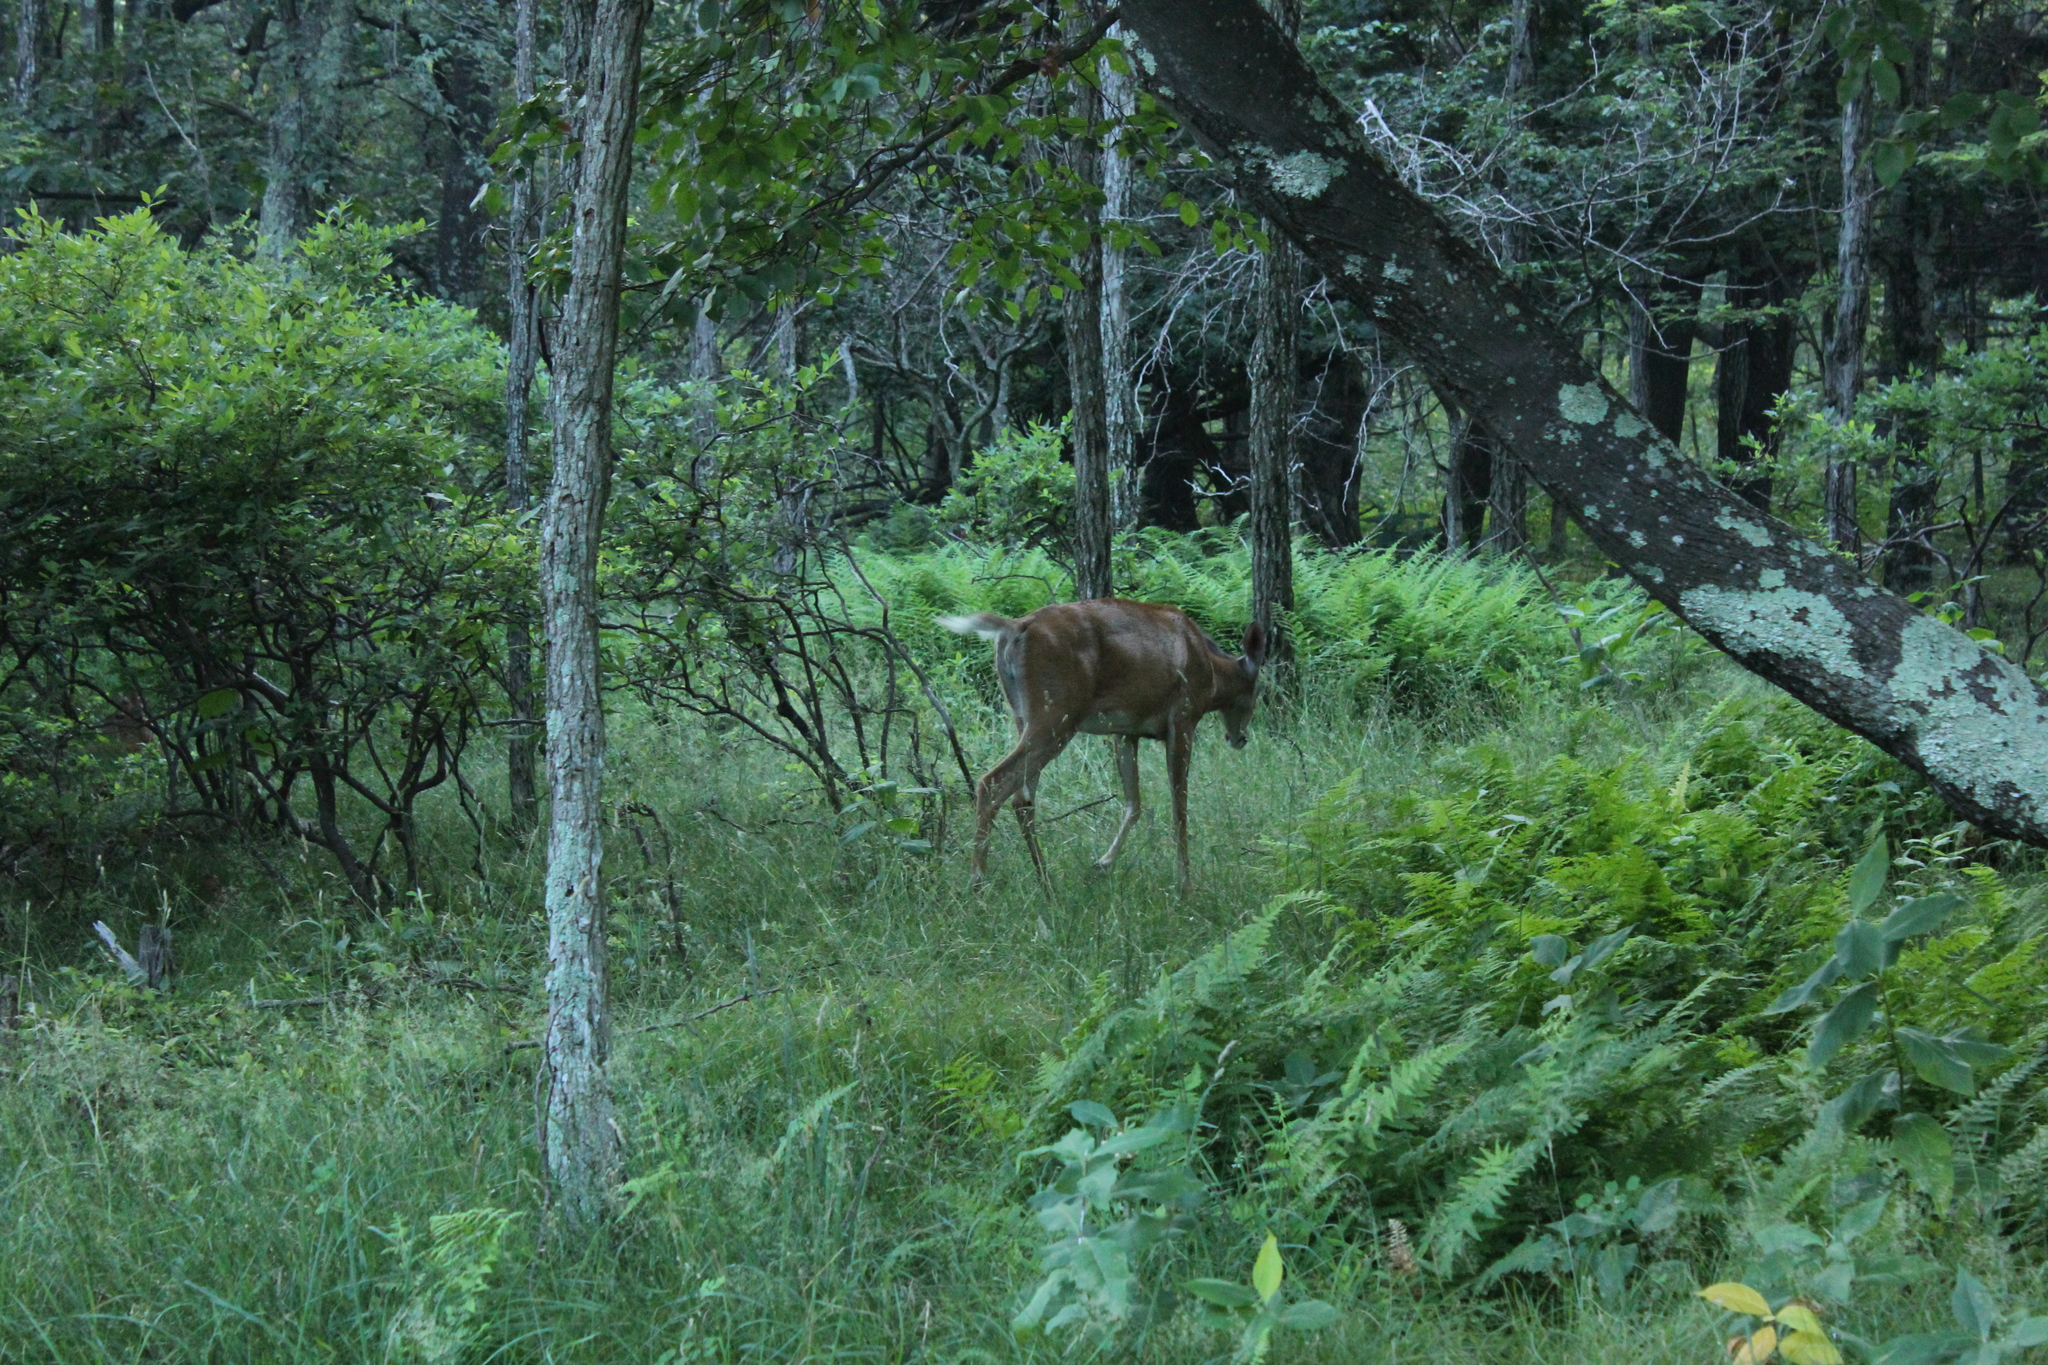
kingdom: Animalia
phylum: Chordata
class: Mammalia
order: Artiodactyla
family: Cervidae
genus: Odocoileus
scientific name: Odocoileus virginianus
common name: White-tailed deer
